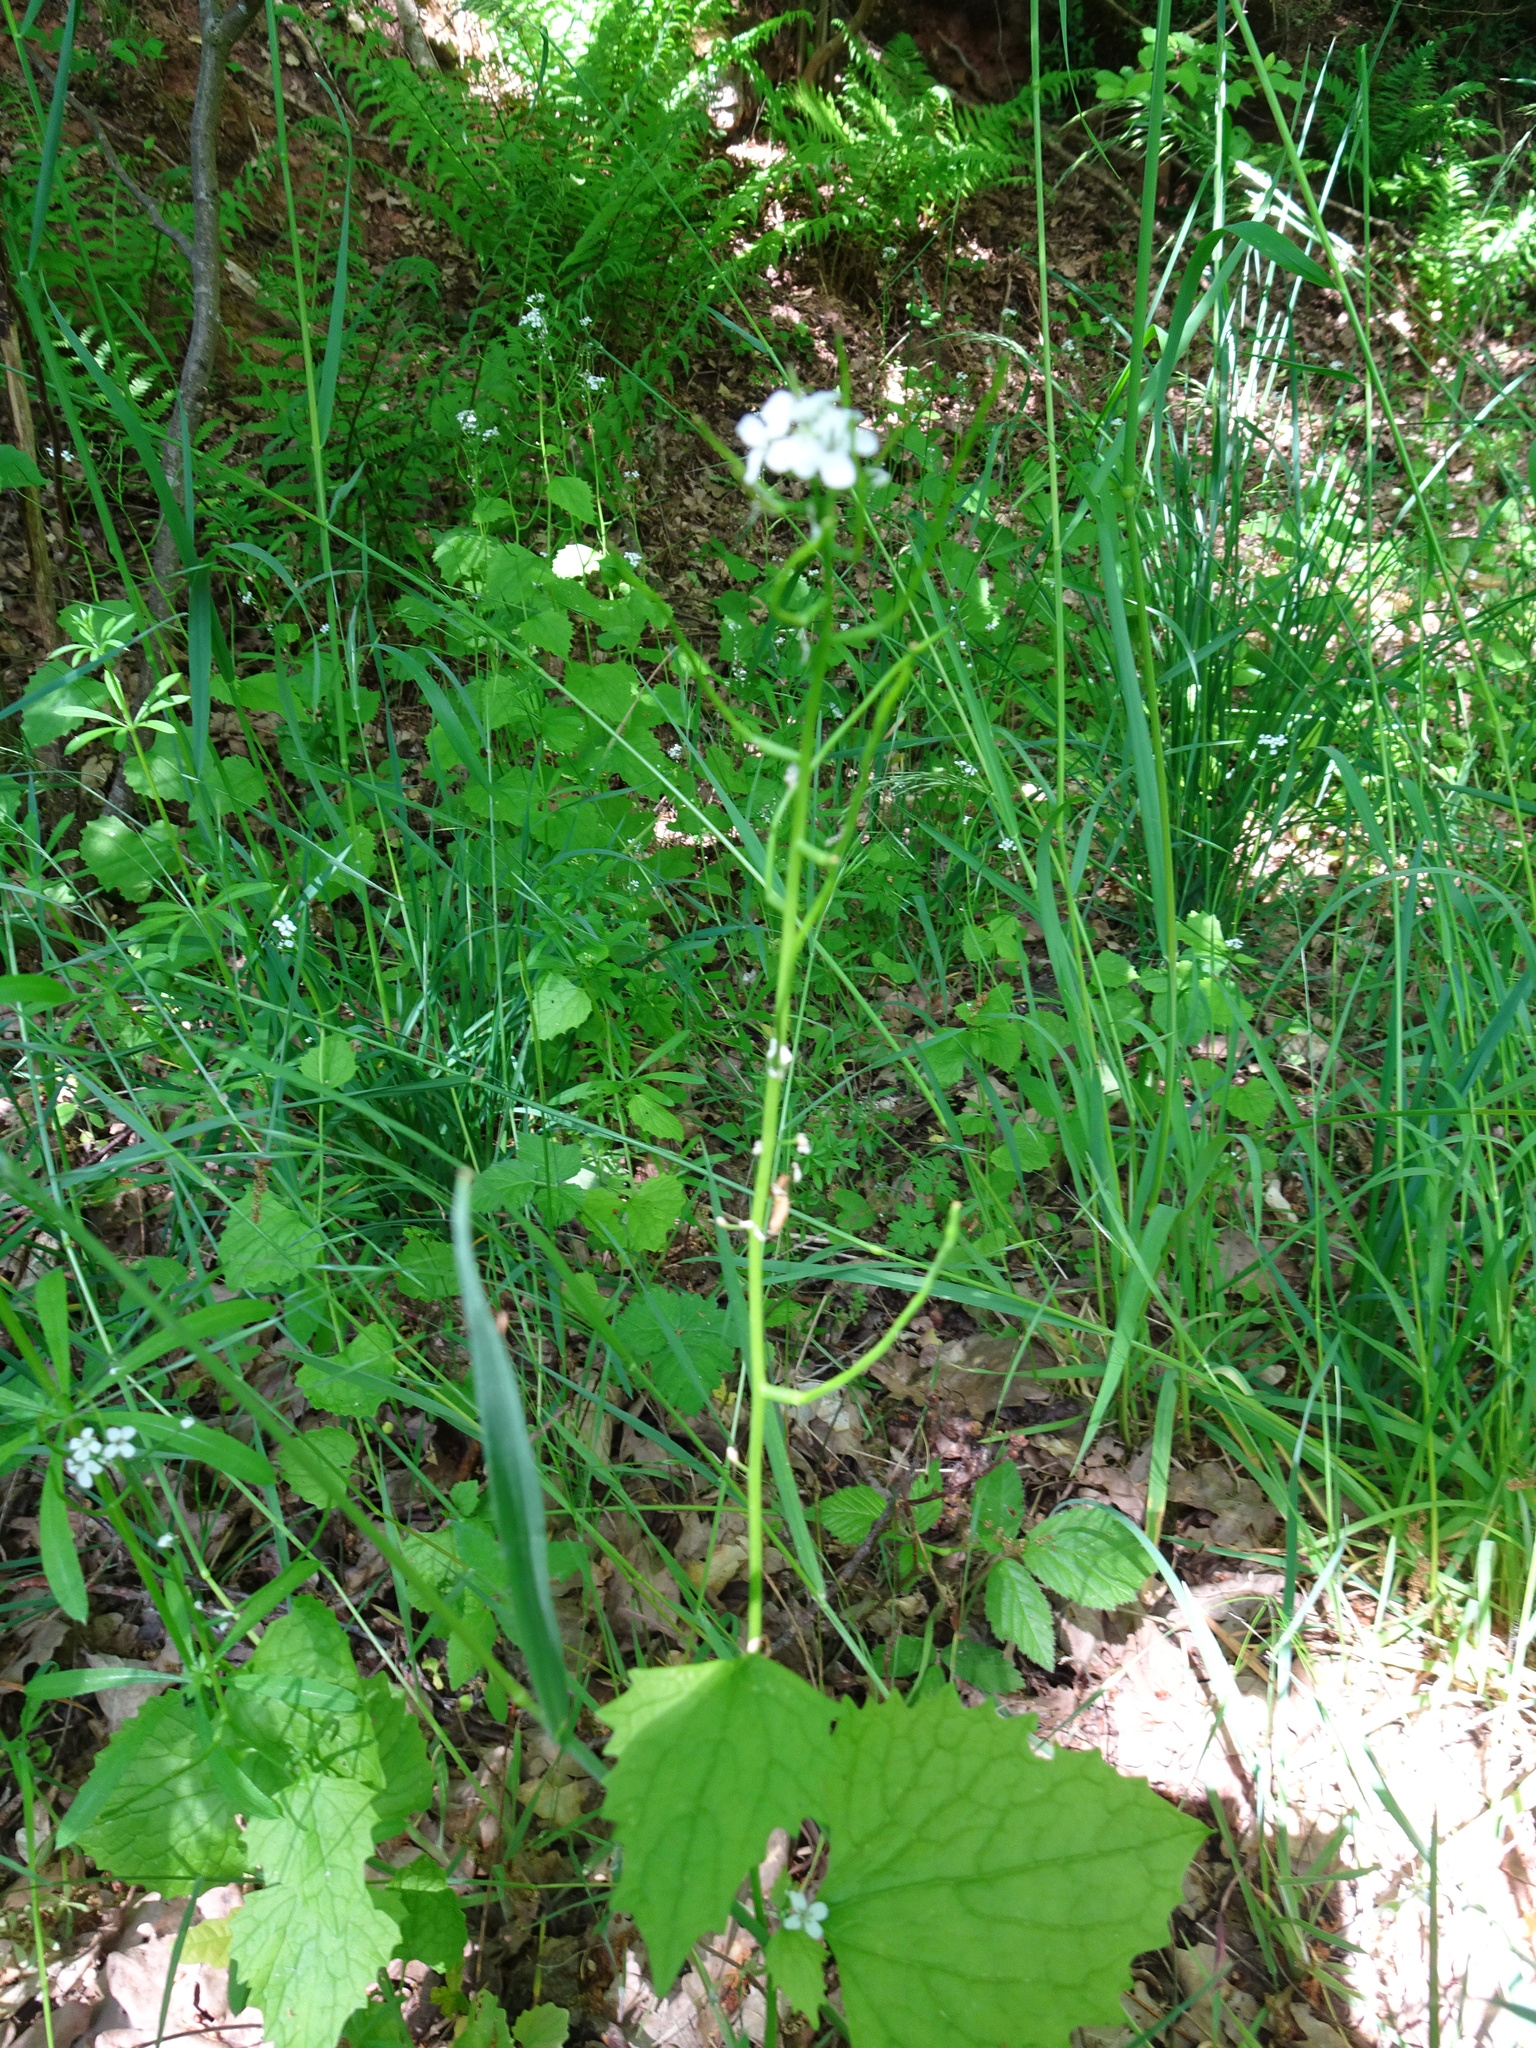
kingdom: Plantae
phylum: Tracheophyta
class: Magnoliopsida
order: Brassicales
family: Brassicaceae
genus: Alliaria
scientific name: Alliaria petiolata
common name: Garlic mustard
